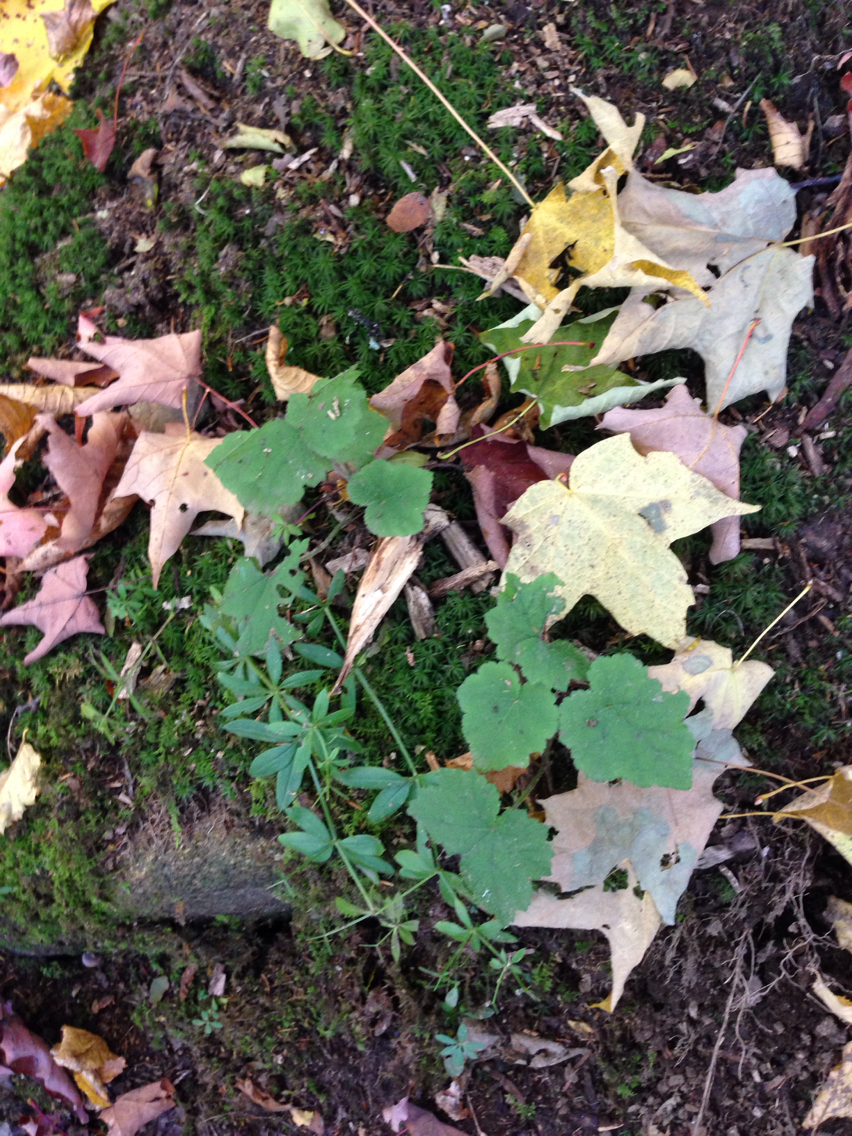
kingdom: Plantae
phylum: Tracheophyta
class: Magnoliopsida
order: Saxifragales
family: Saxifragaceae
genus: Tiarella
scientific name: Tiarella stolonifera
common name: Stoloniferous foamflower
